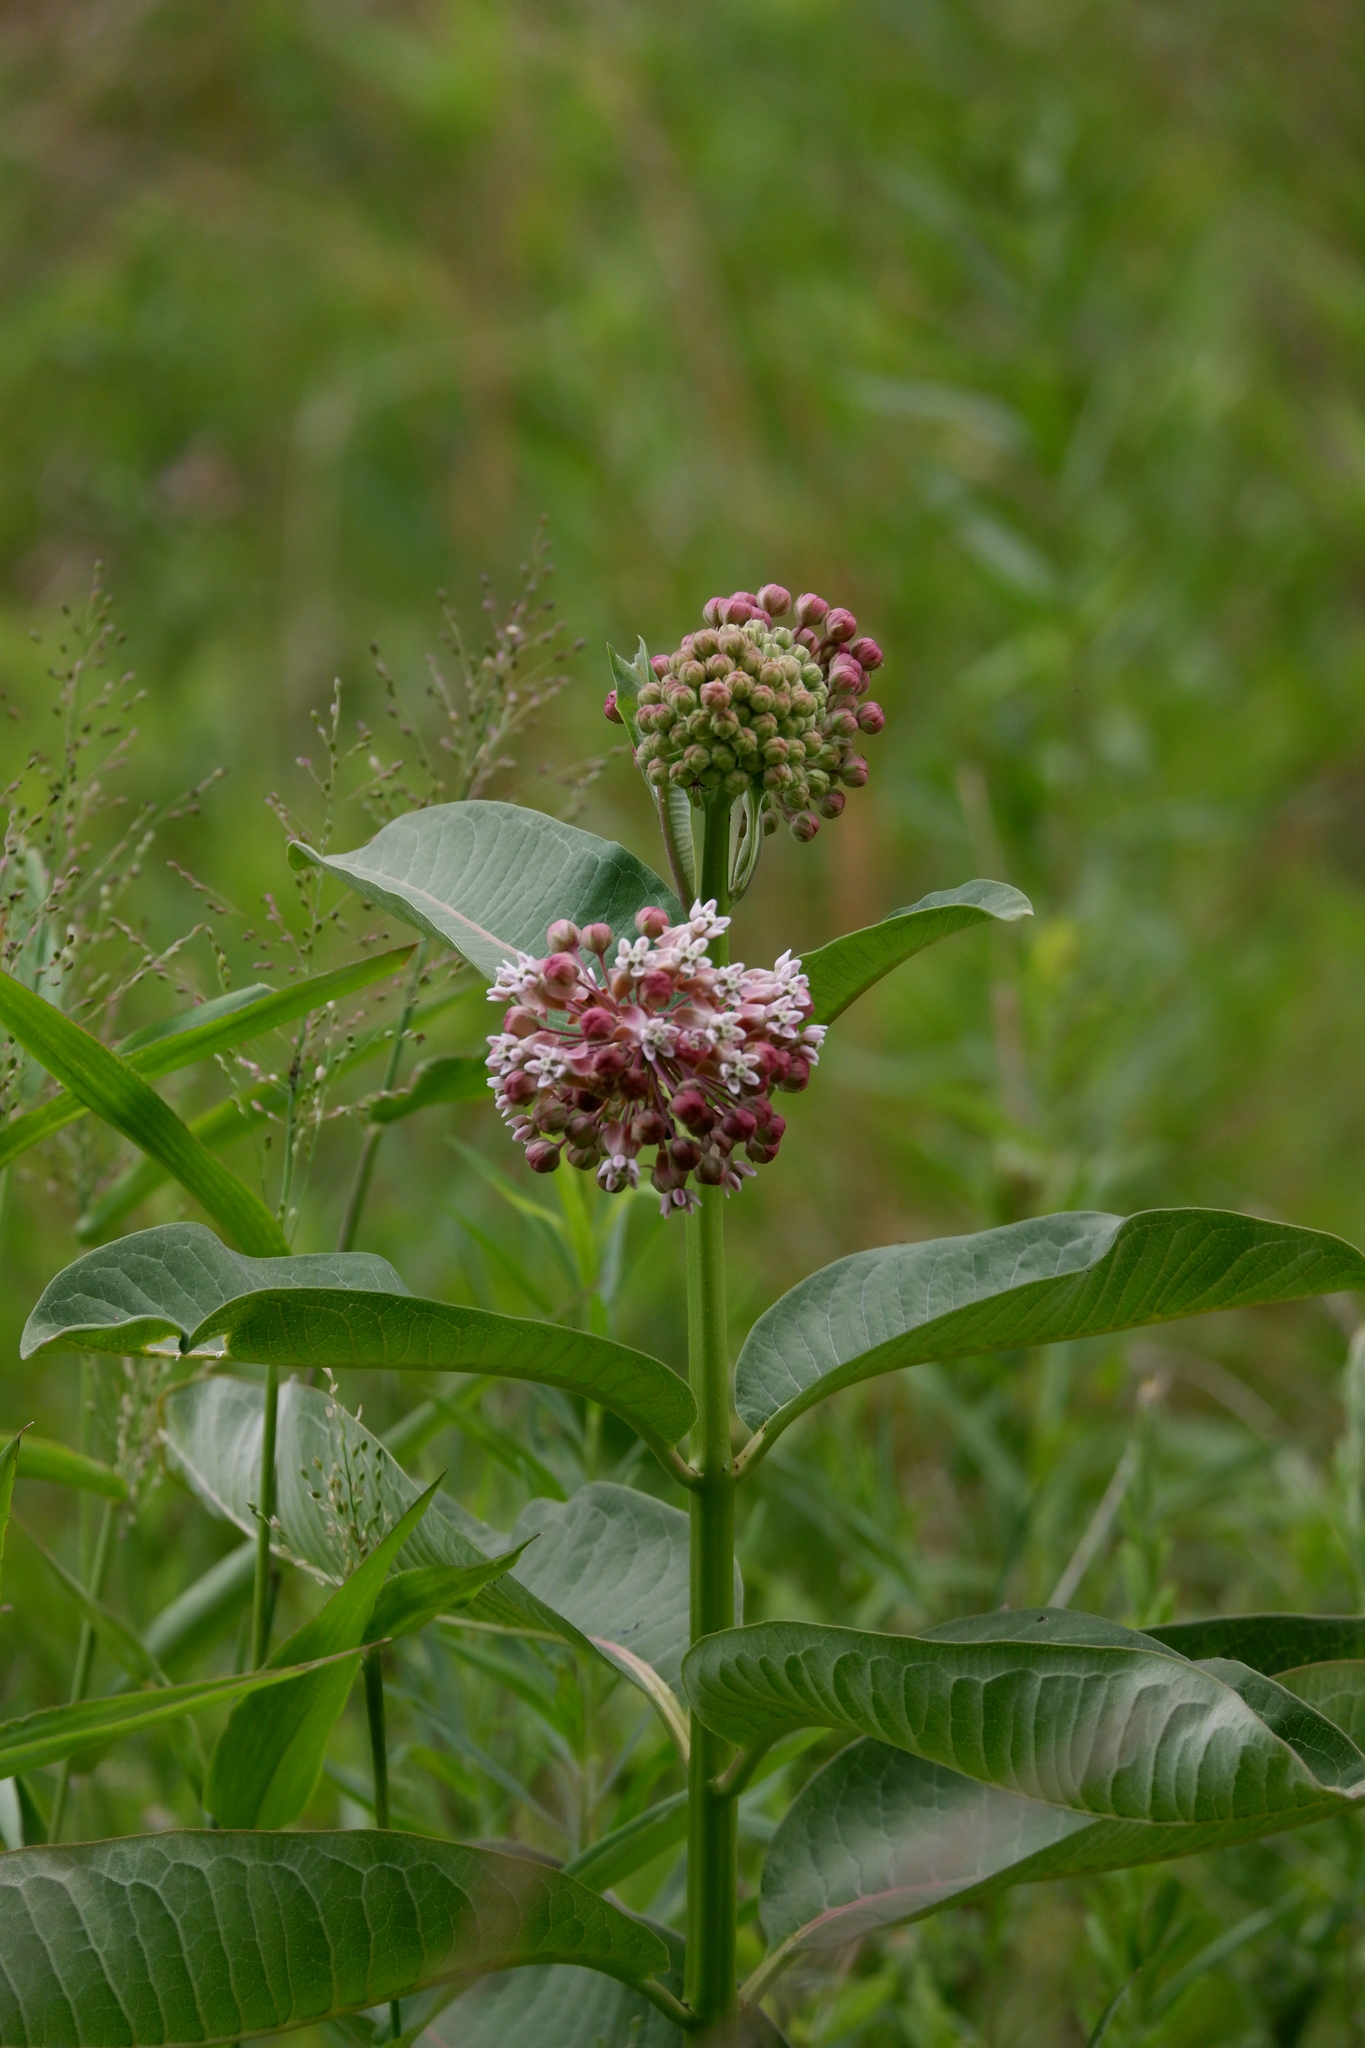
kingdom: Plantae
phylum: Tracheophyta
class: Magnoliopsida
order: Gentianales
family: Apocynaceae
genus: Asclepias
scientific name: Asclepias syriaca
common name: Common milkweed
